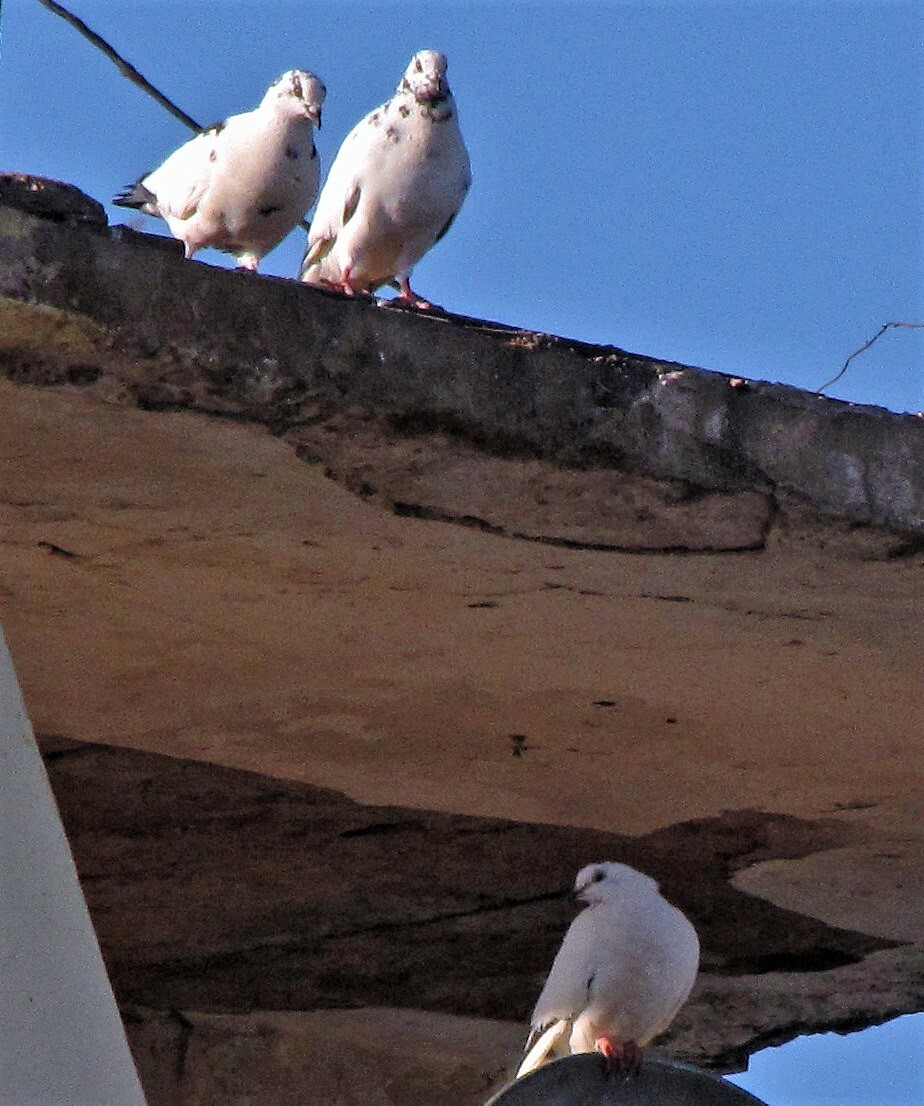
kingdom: Animalia
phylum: Chordata
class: Aves
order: Columbiformes
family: Columbidae
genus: Columba
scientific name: Columba livia
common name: Rock pigeon
